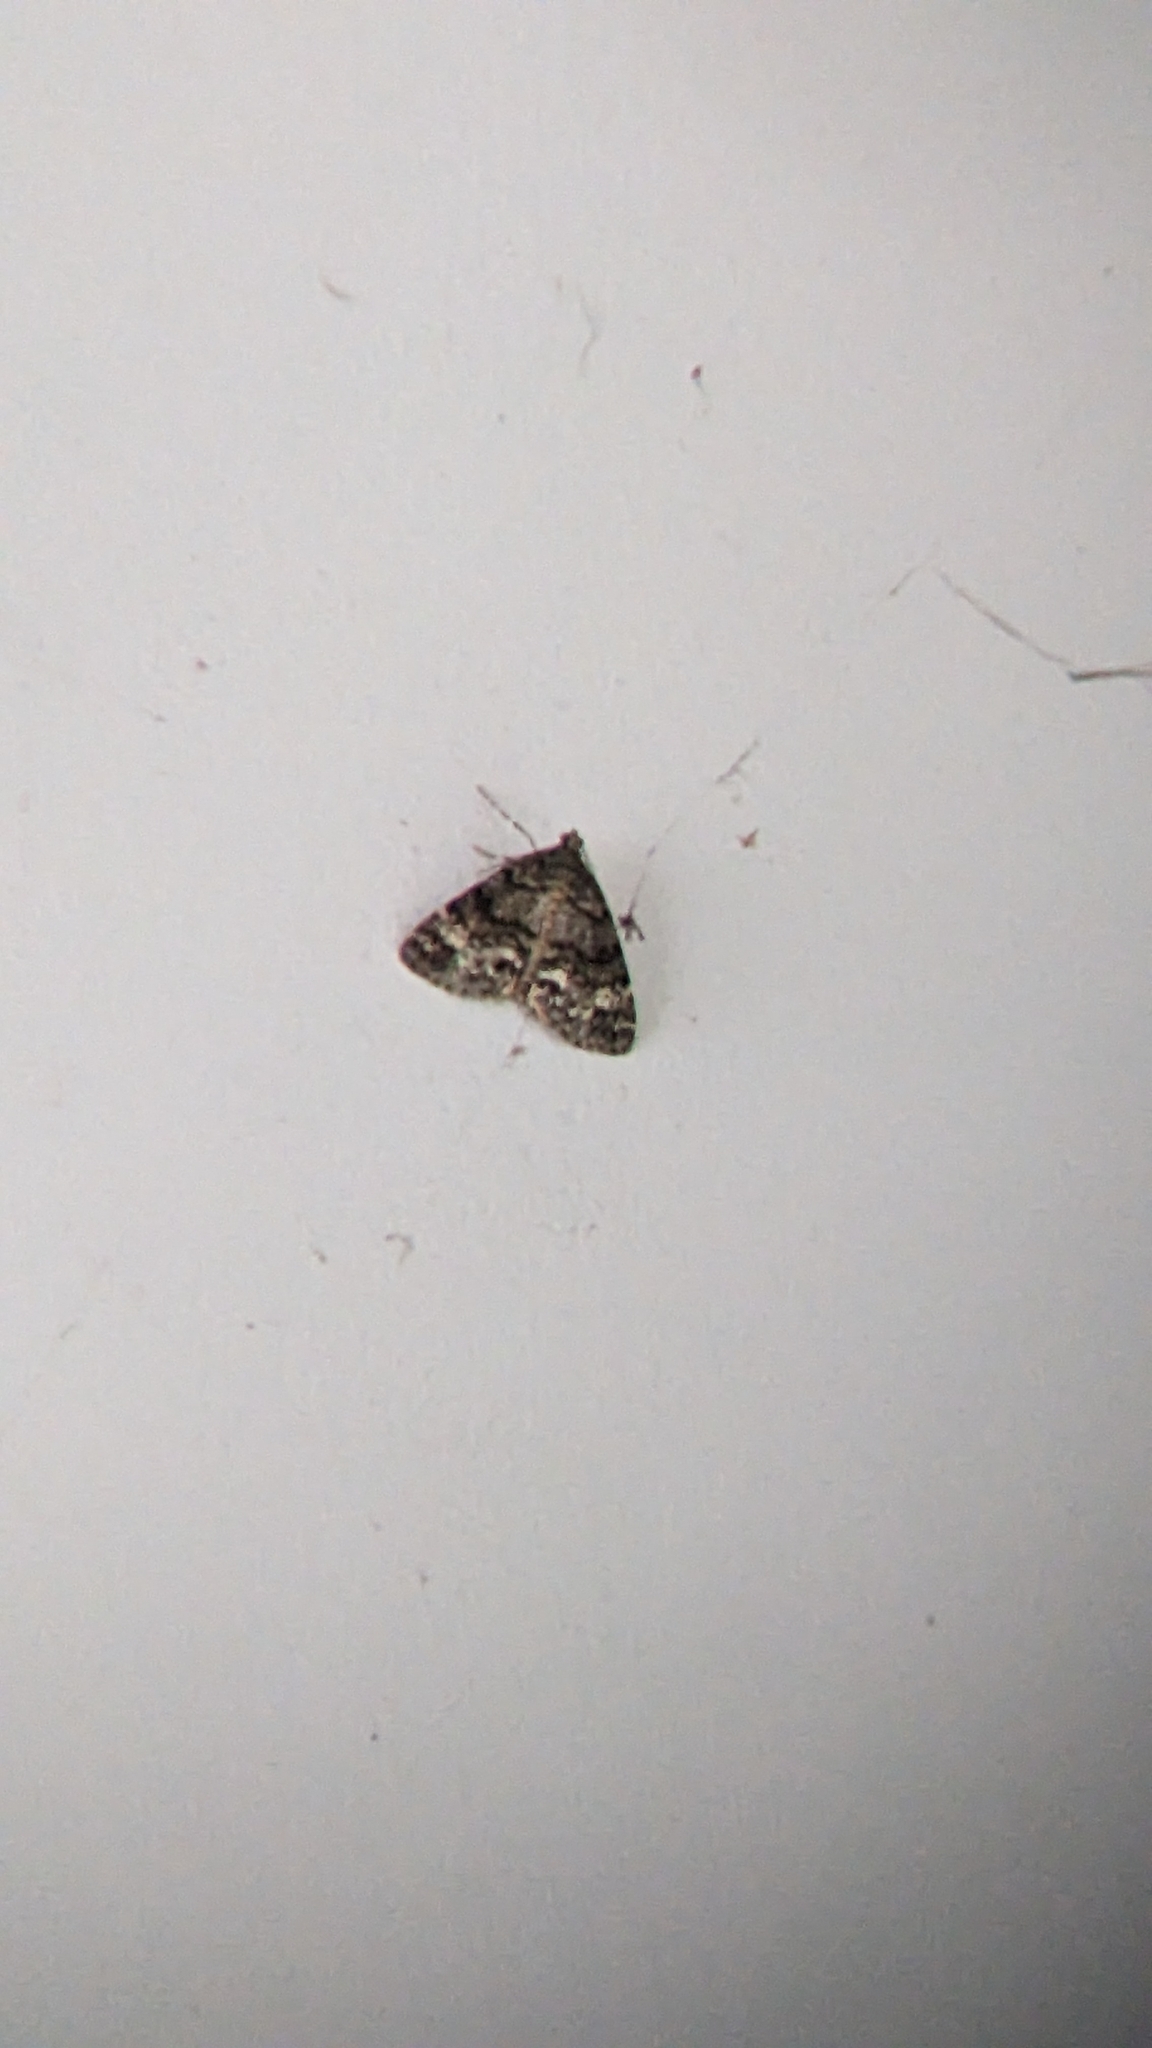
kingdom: Animalia
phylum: Arthropoda
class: Insecta
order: Lepidoptera
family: Geometridae
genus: Pseudocoremia
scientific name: Pseudocoremia indistincta
